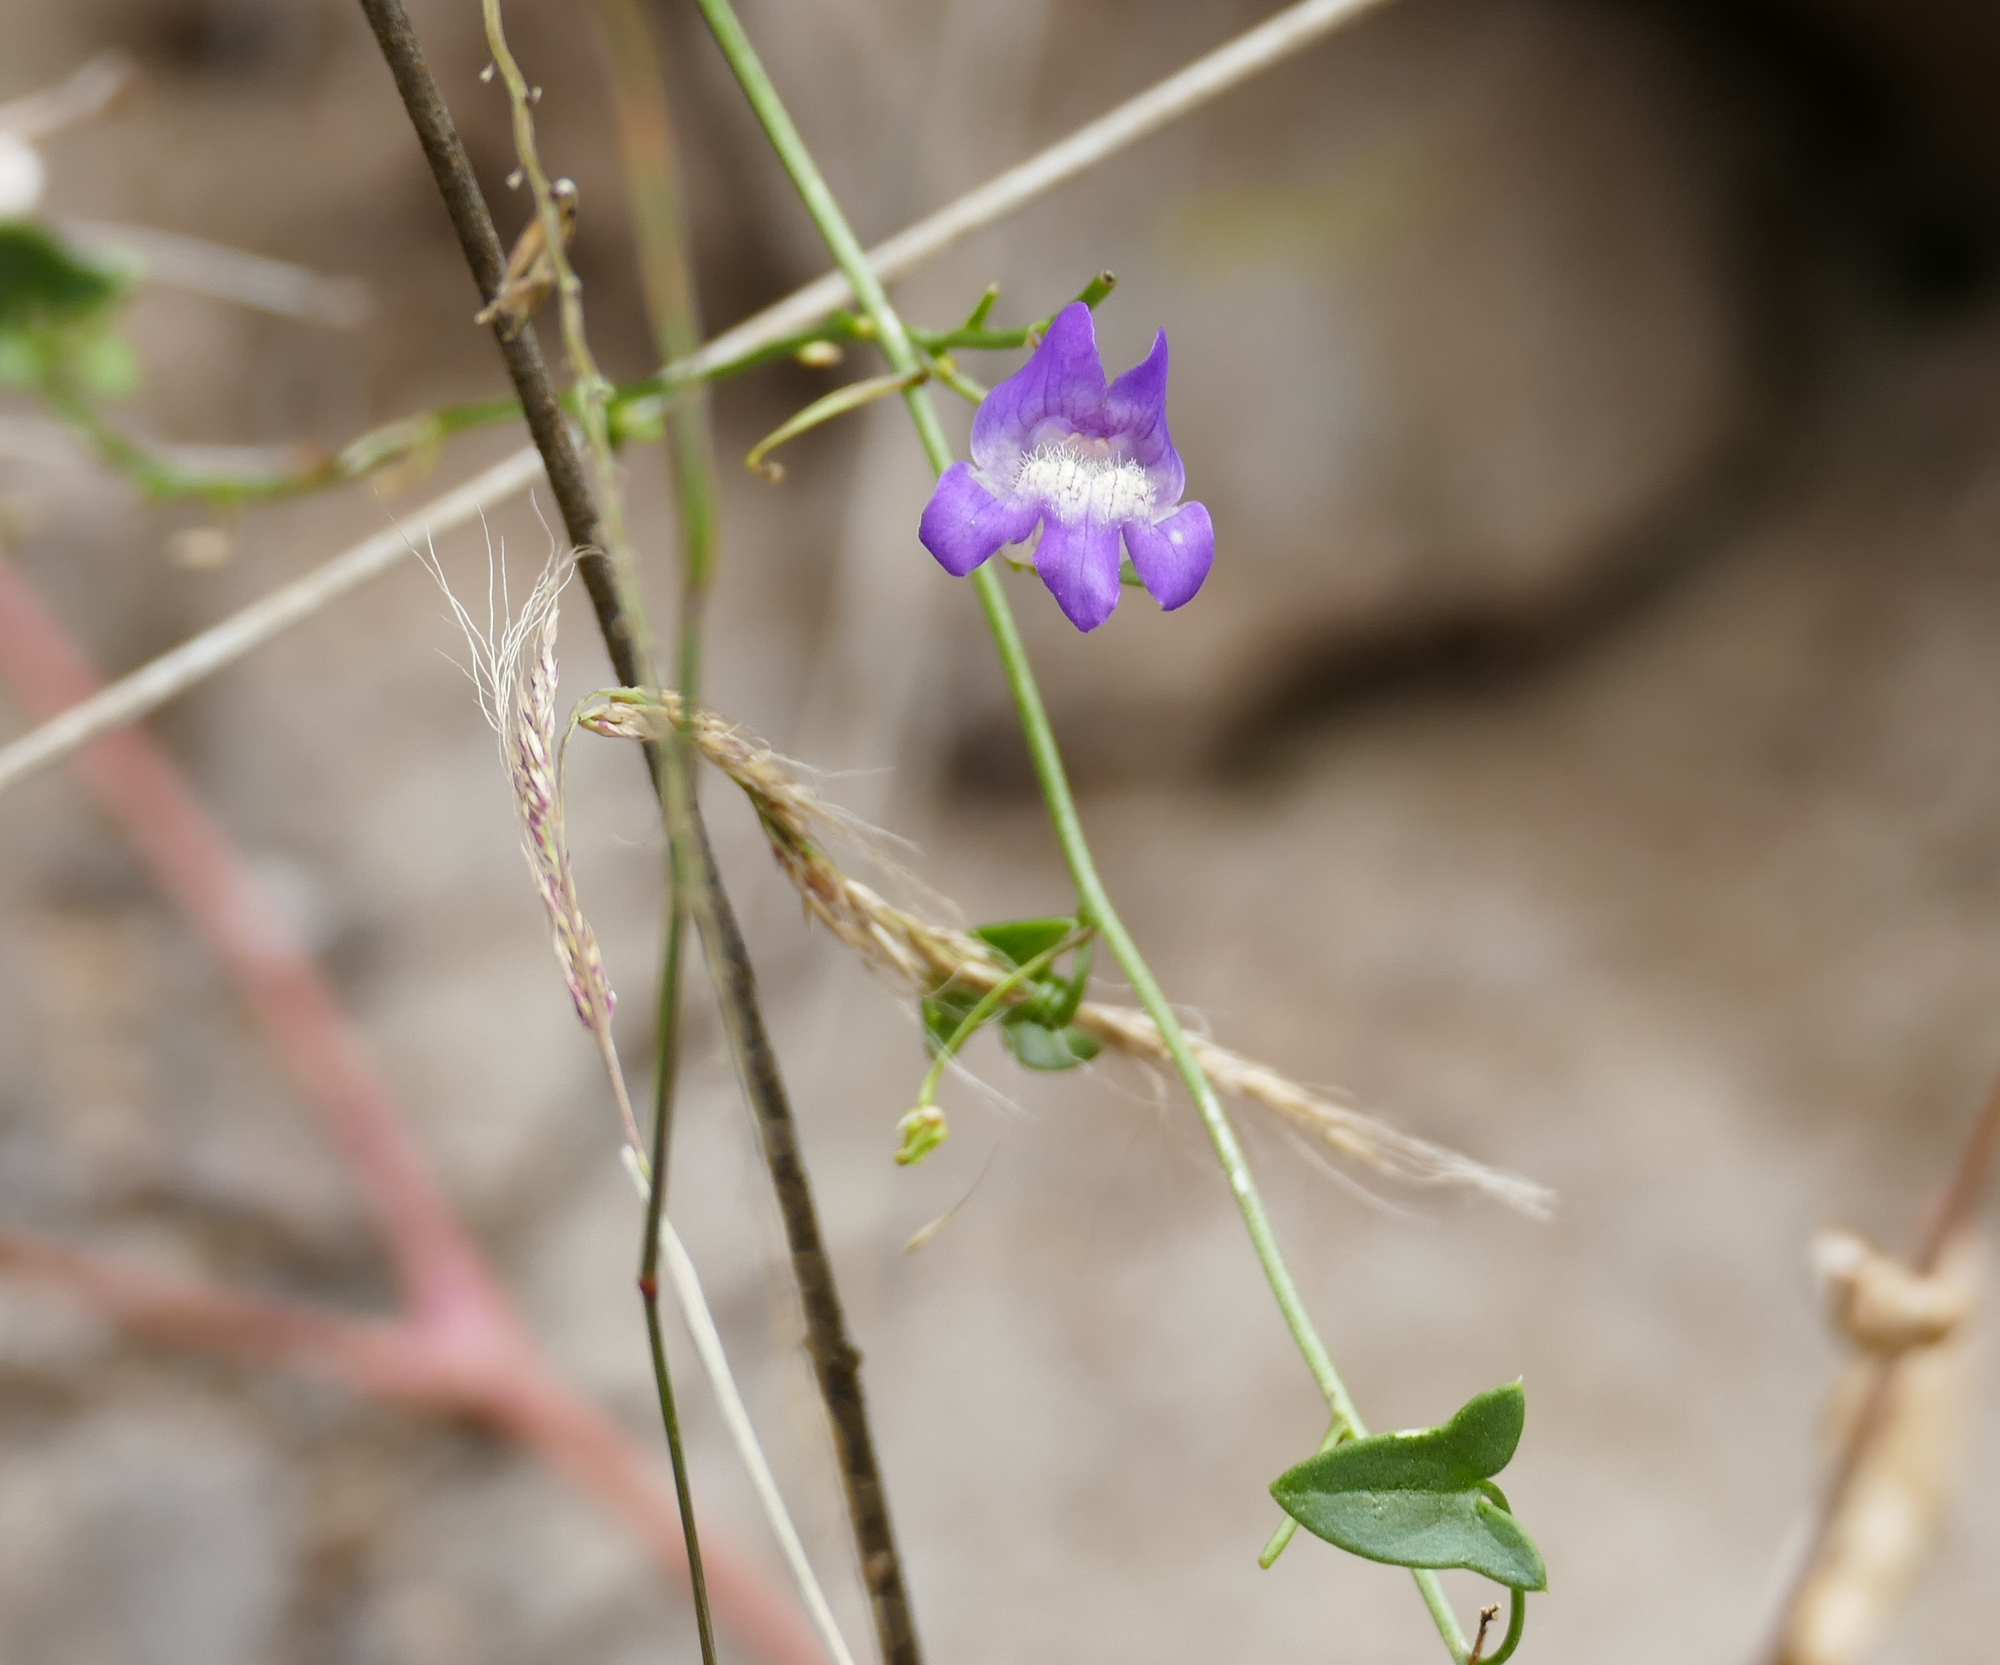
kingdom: Plantae
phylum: Tracheophyta
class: Magnoliopsida
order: Lamiales
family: Plantaginaceae
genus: Maurandella
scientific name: Maurandella antirrhiniflora
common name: Violet twining-snapdragon
